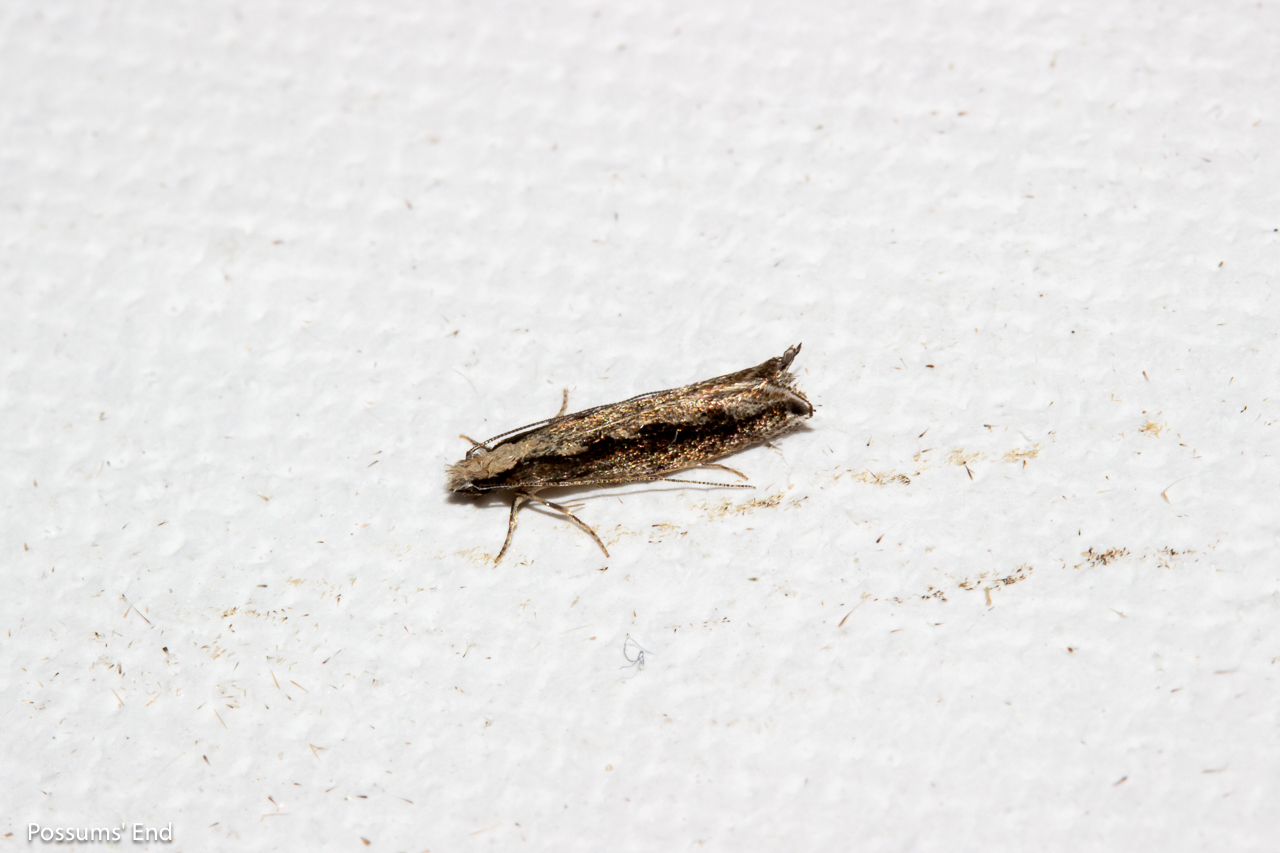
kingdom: Animalia
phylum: Arthropoda
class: Insecta
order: Lepidoptera
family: Tineidae
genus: Erechthias
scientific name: Erechthias fulguritella
